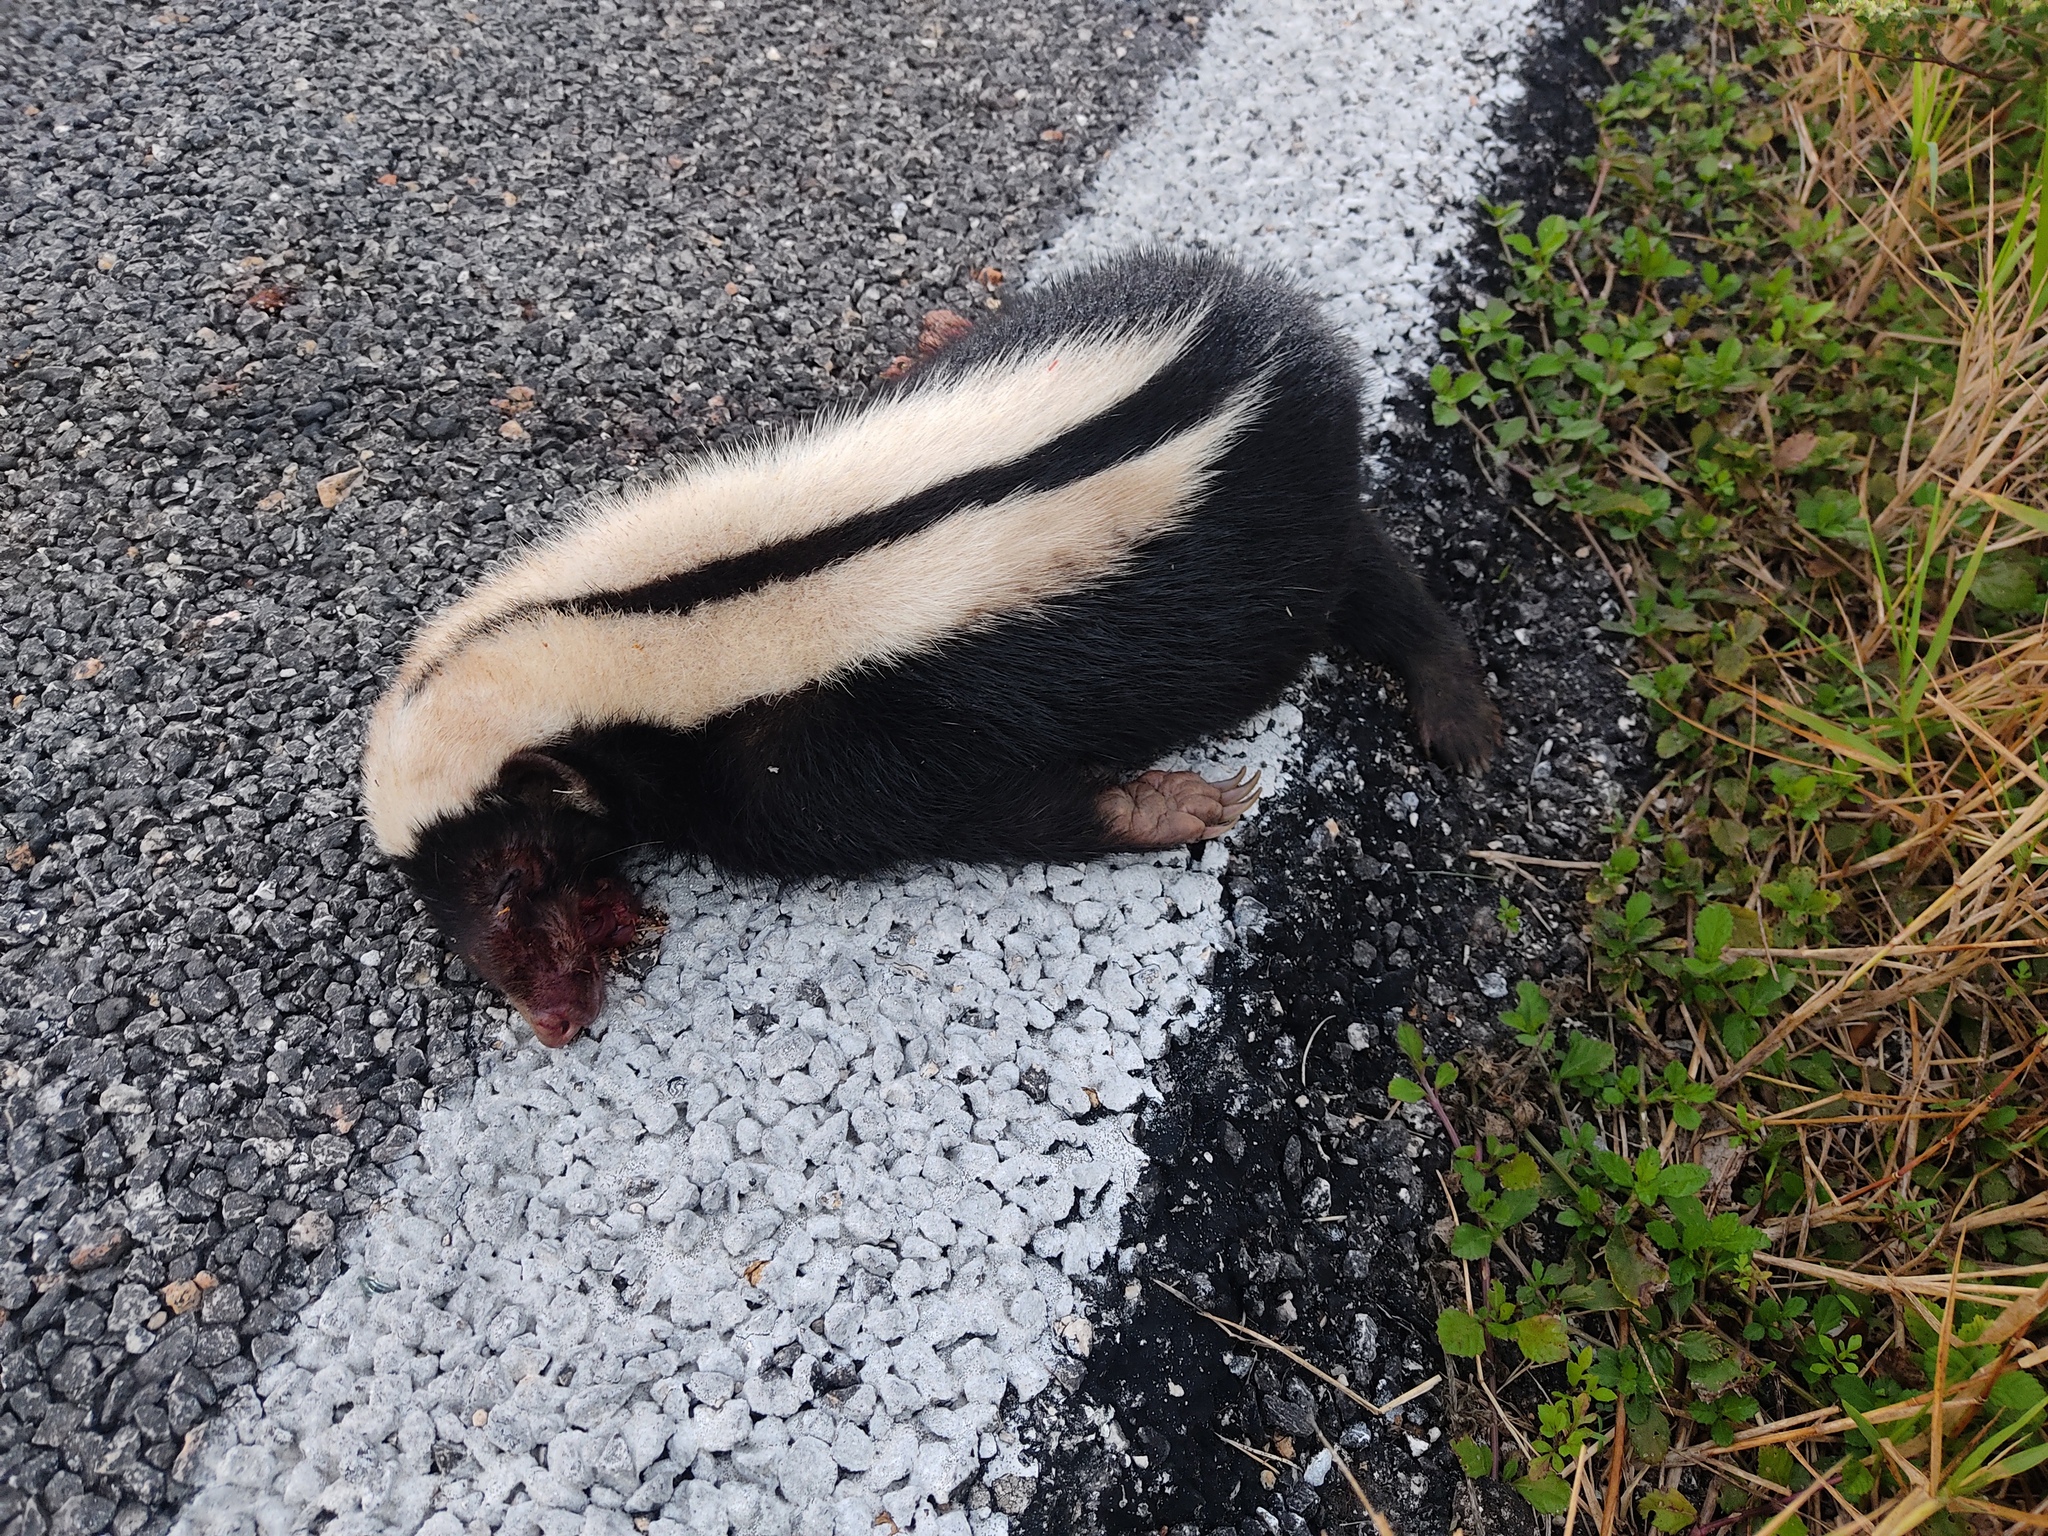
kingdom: Animalia
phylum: Chordata
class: Mammalia
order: Carnivora
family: Mephitidae
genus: Conepatus
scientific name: Conepatus semistriatus
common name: Striped hog-nosed skunk
